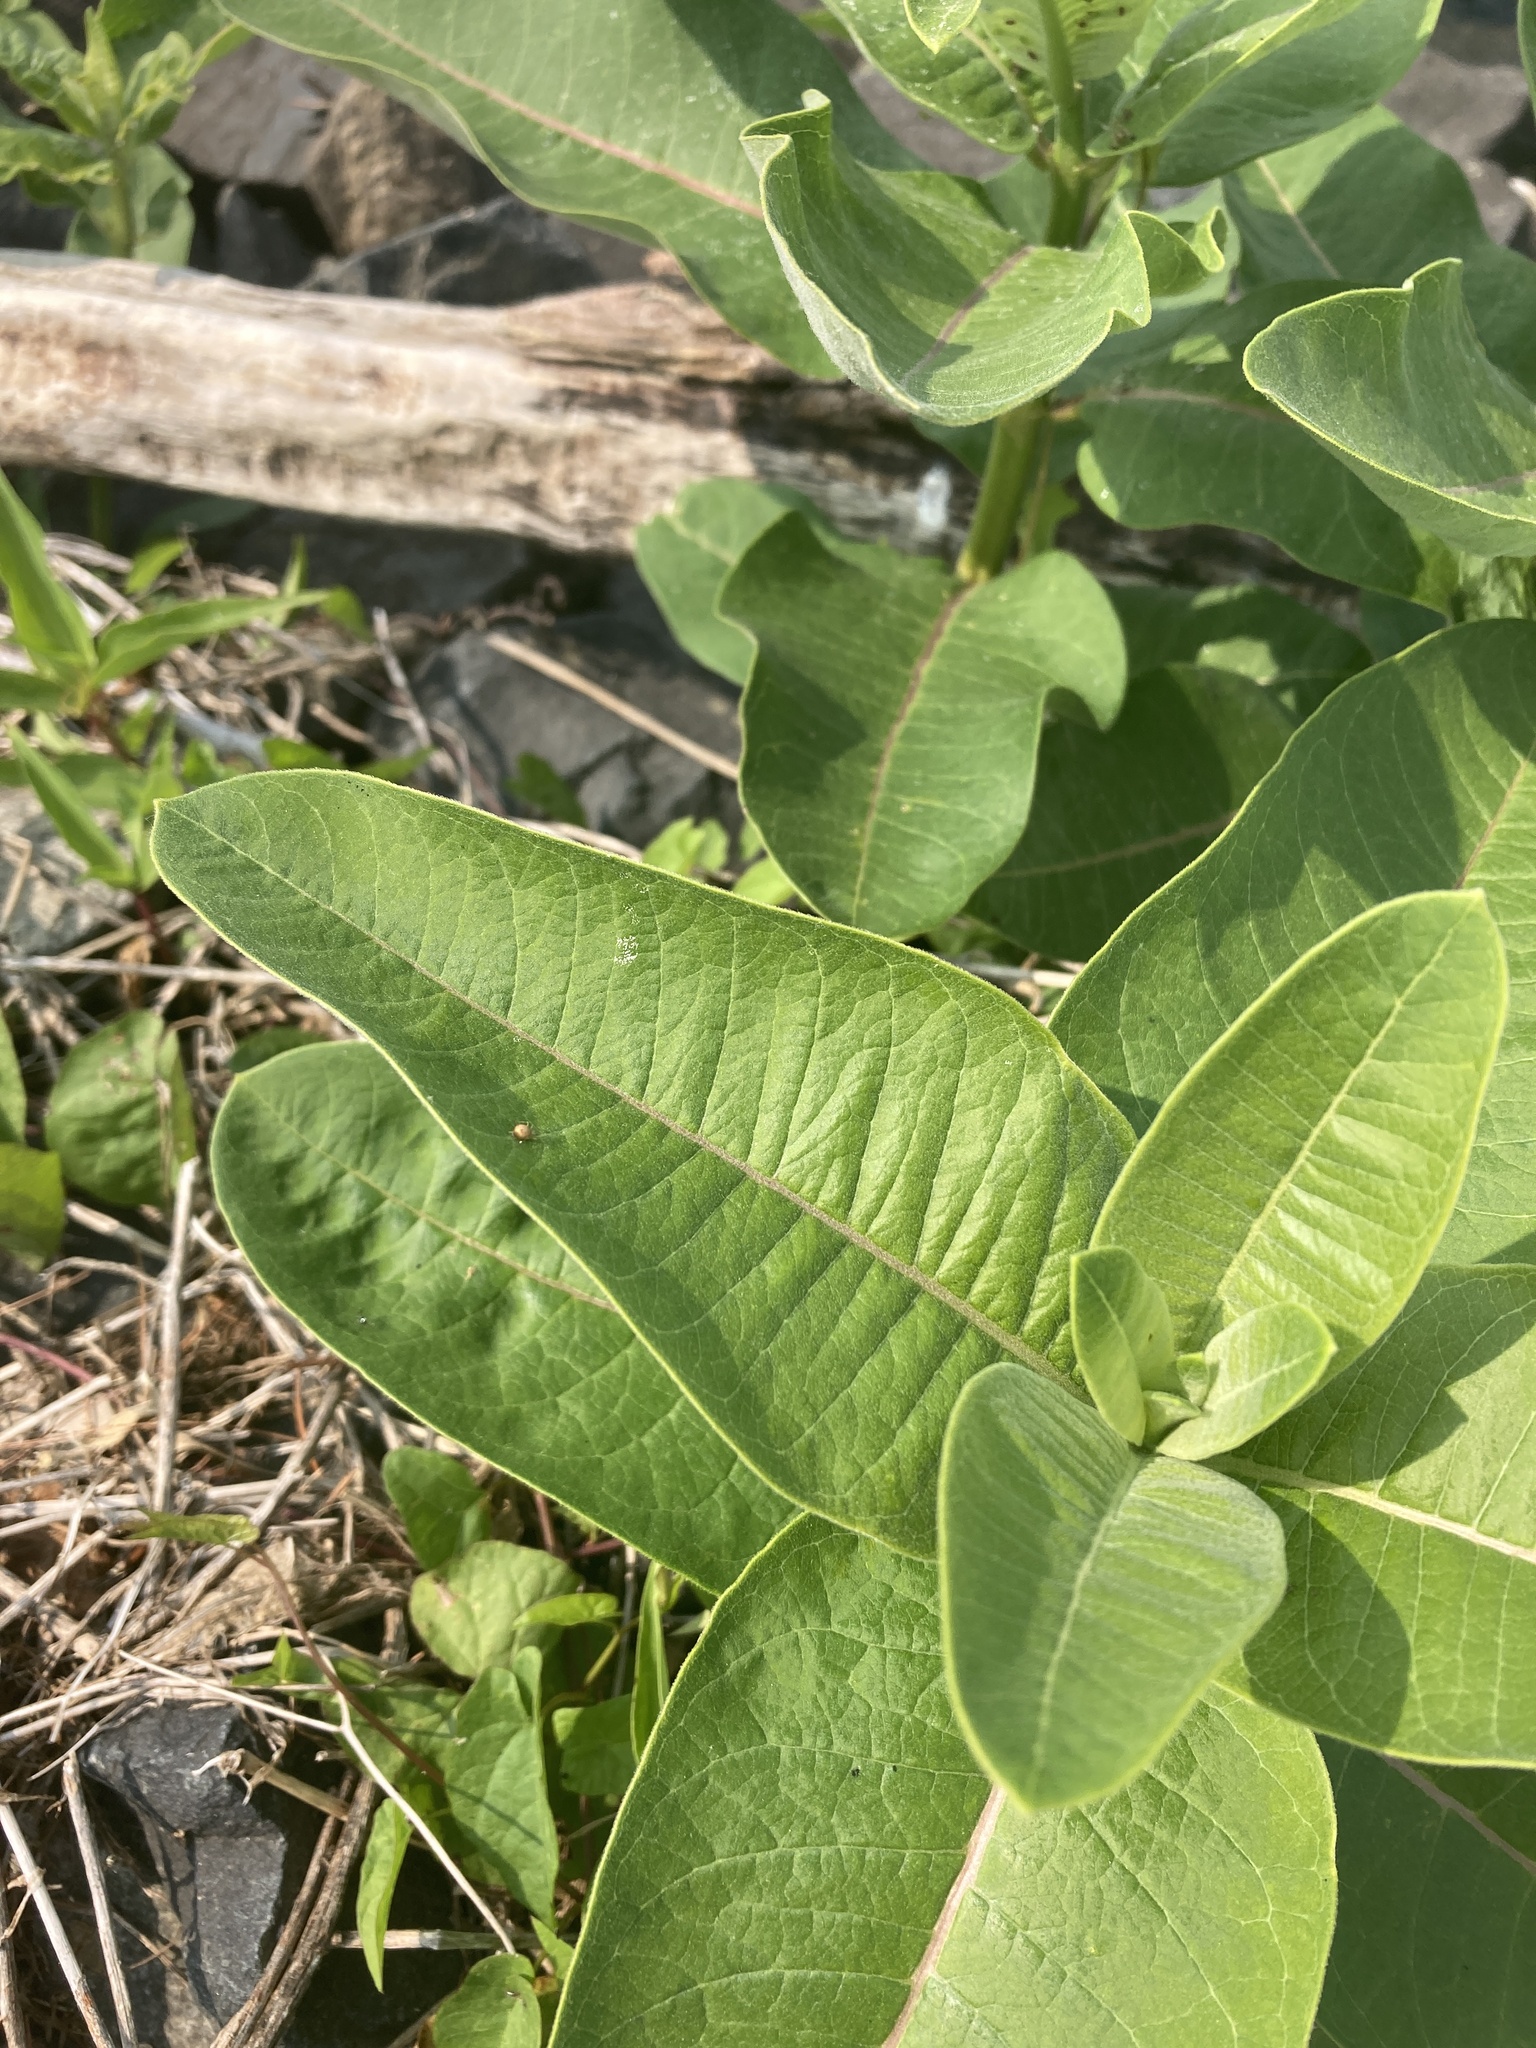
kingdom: Plantae
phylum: Tracheophyta
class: Magnoliopsida
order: Gentianales
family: Apocynaceae
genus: Asclepias
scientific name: Asclepias syriaca
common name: Common milkweed
